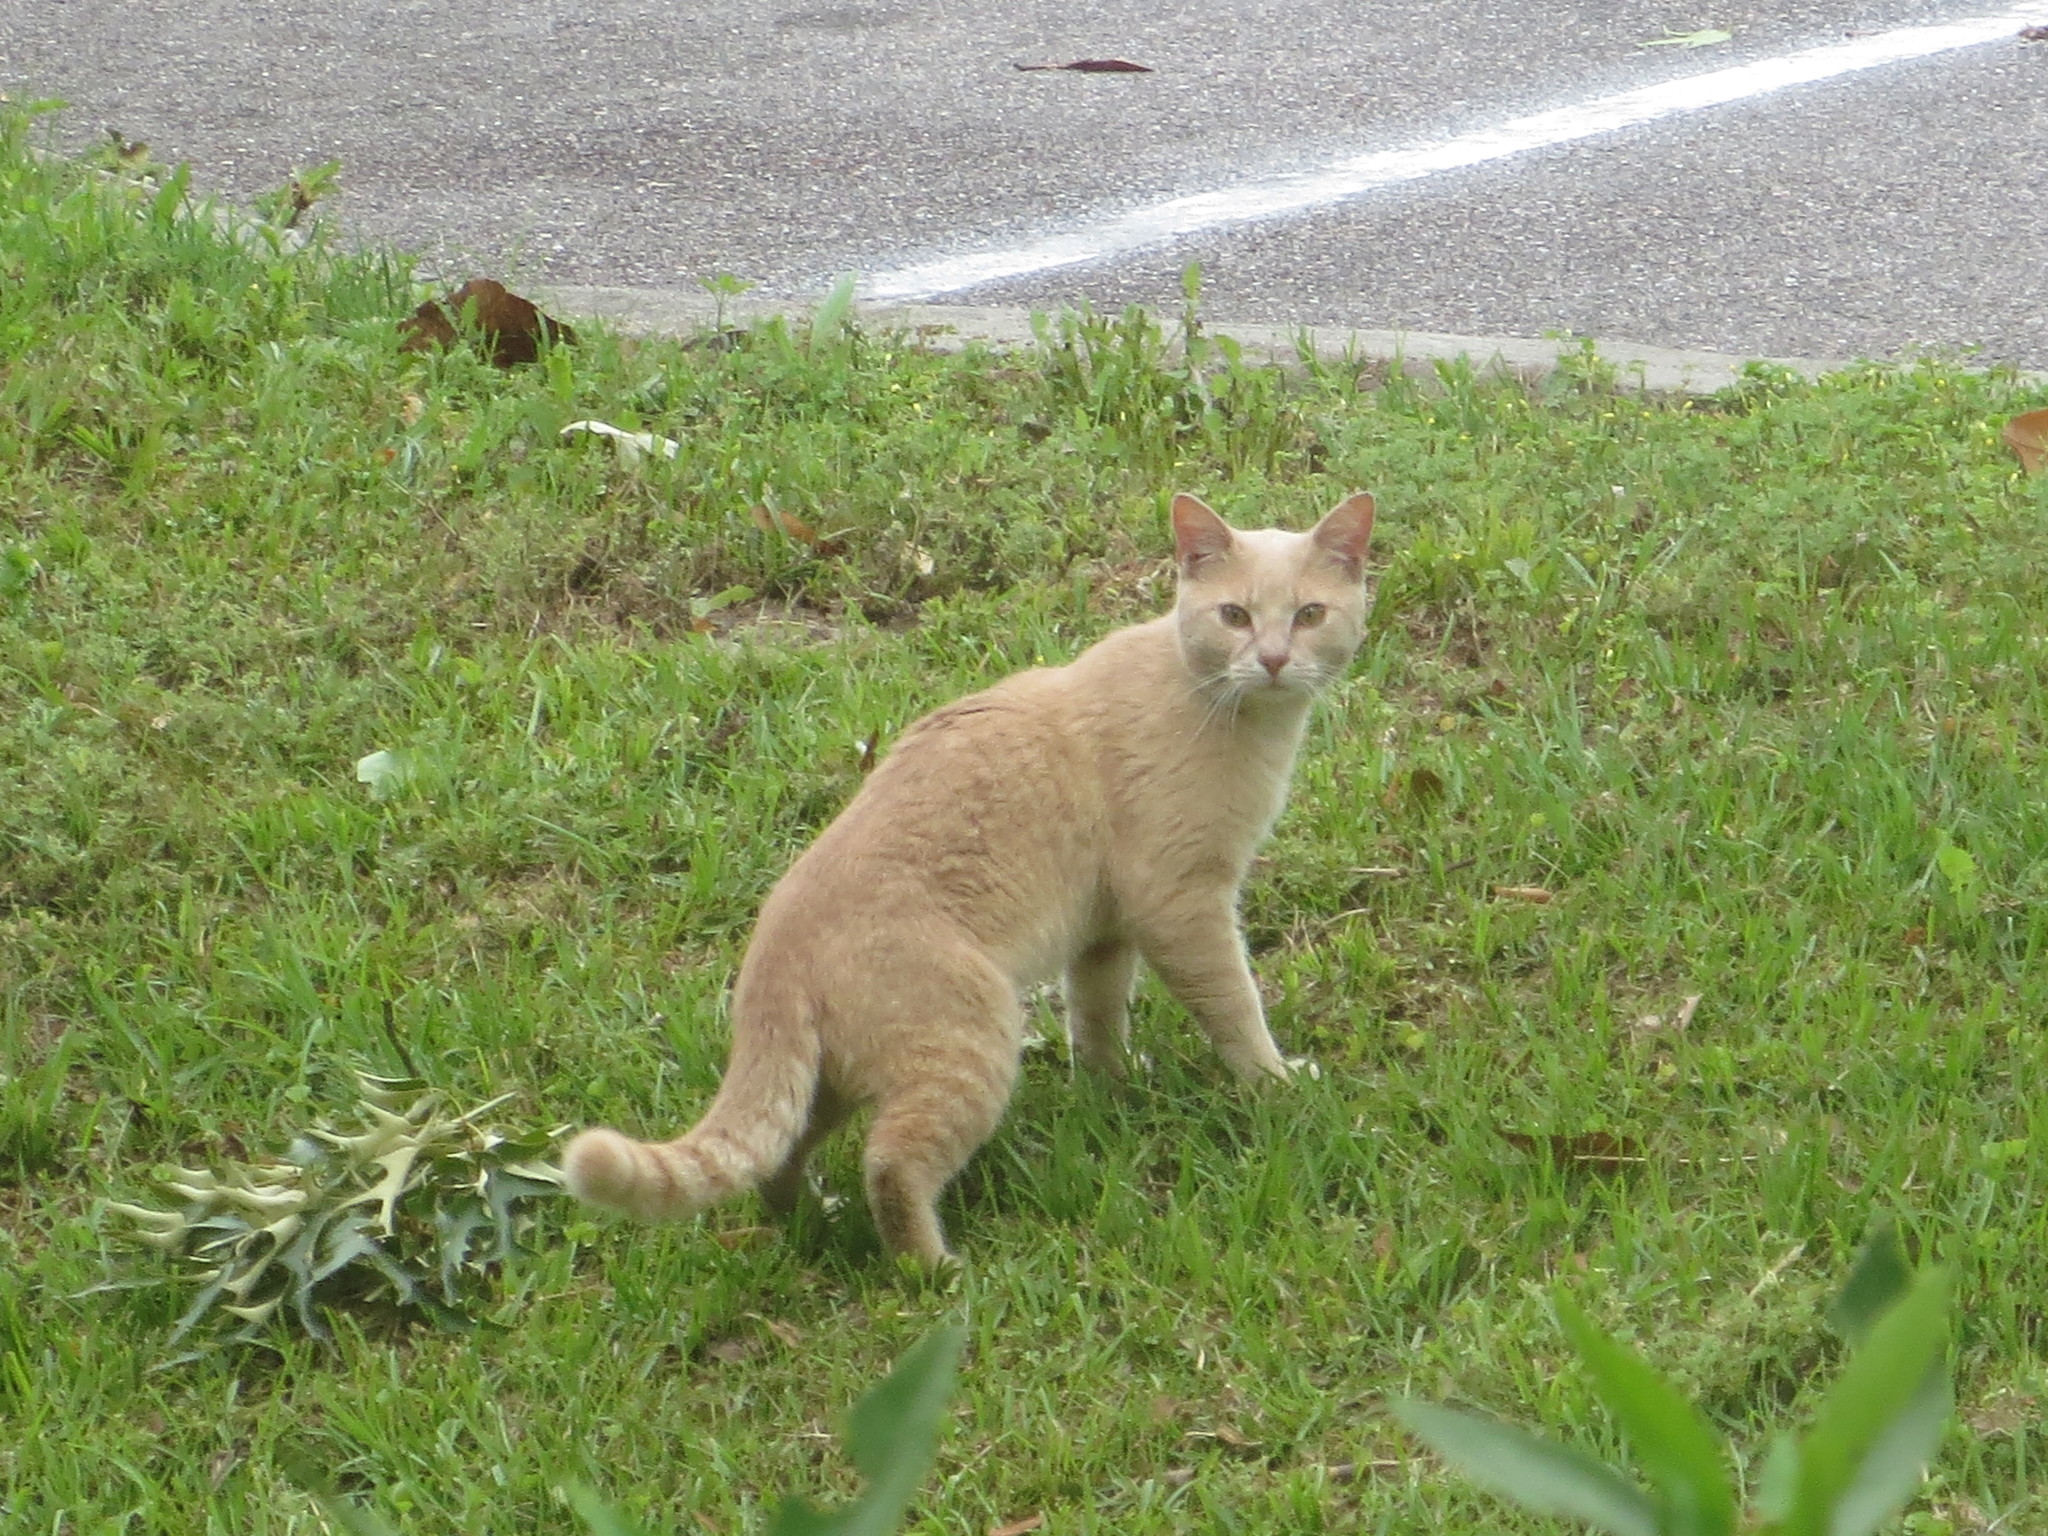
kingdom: Animalia
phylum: Chordata
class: Mammalia
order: Carnivora
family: Felidae
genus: Felis
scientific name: Felis catus
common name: Domestic cat
